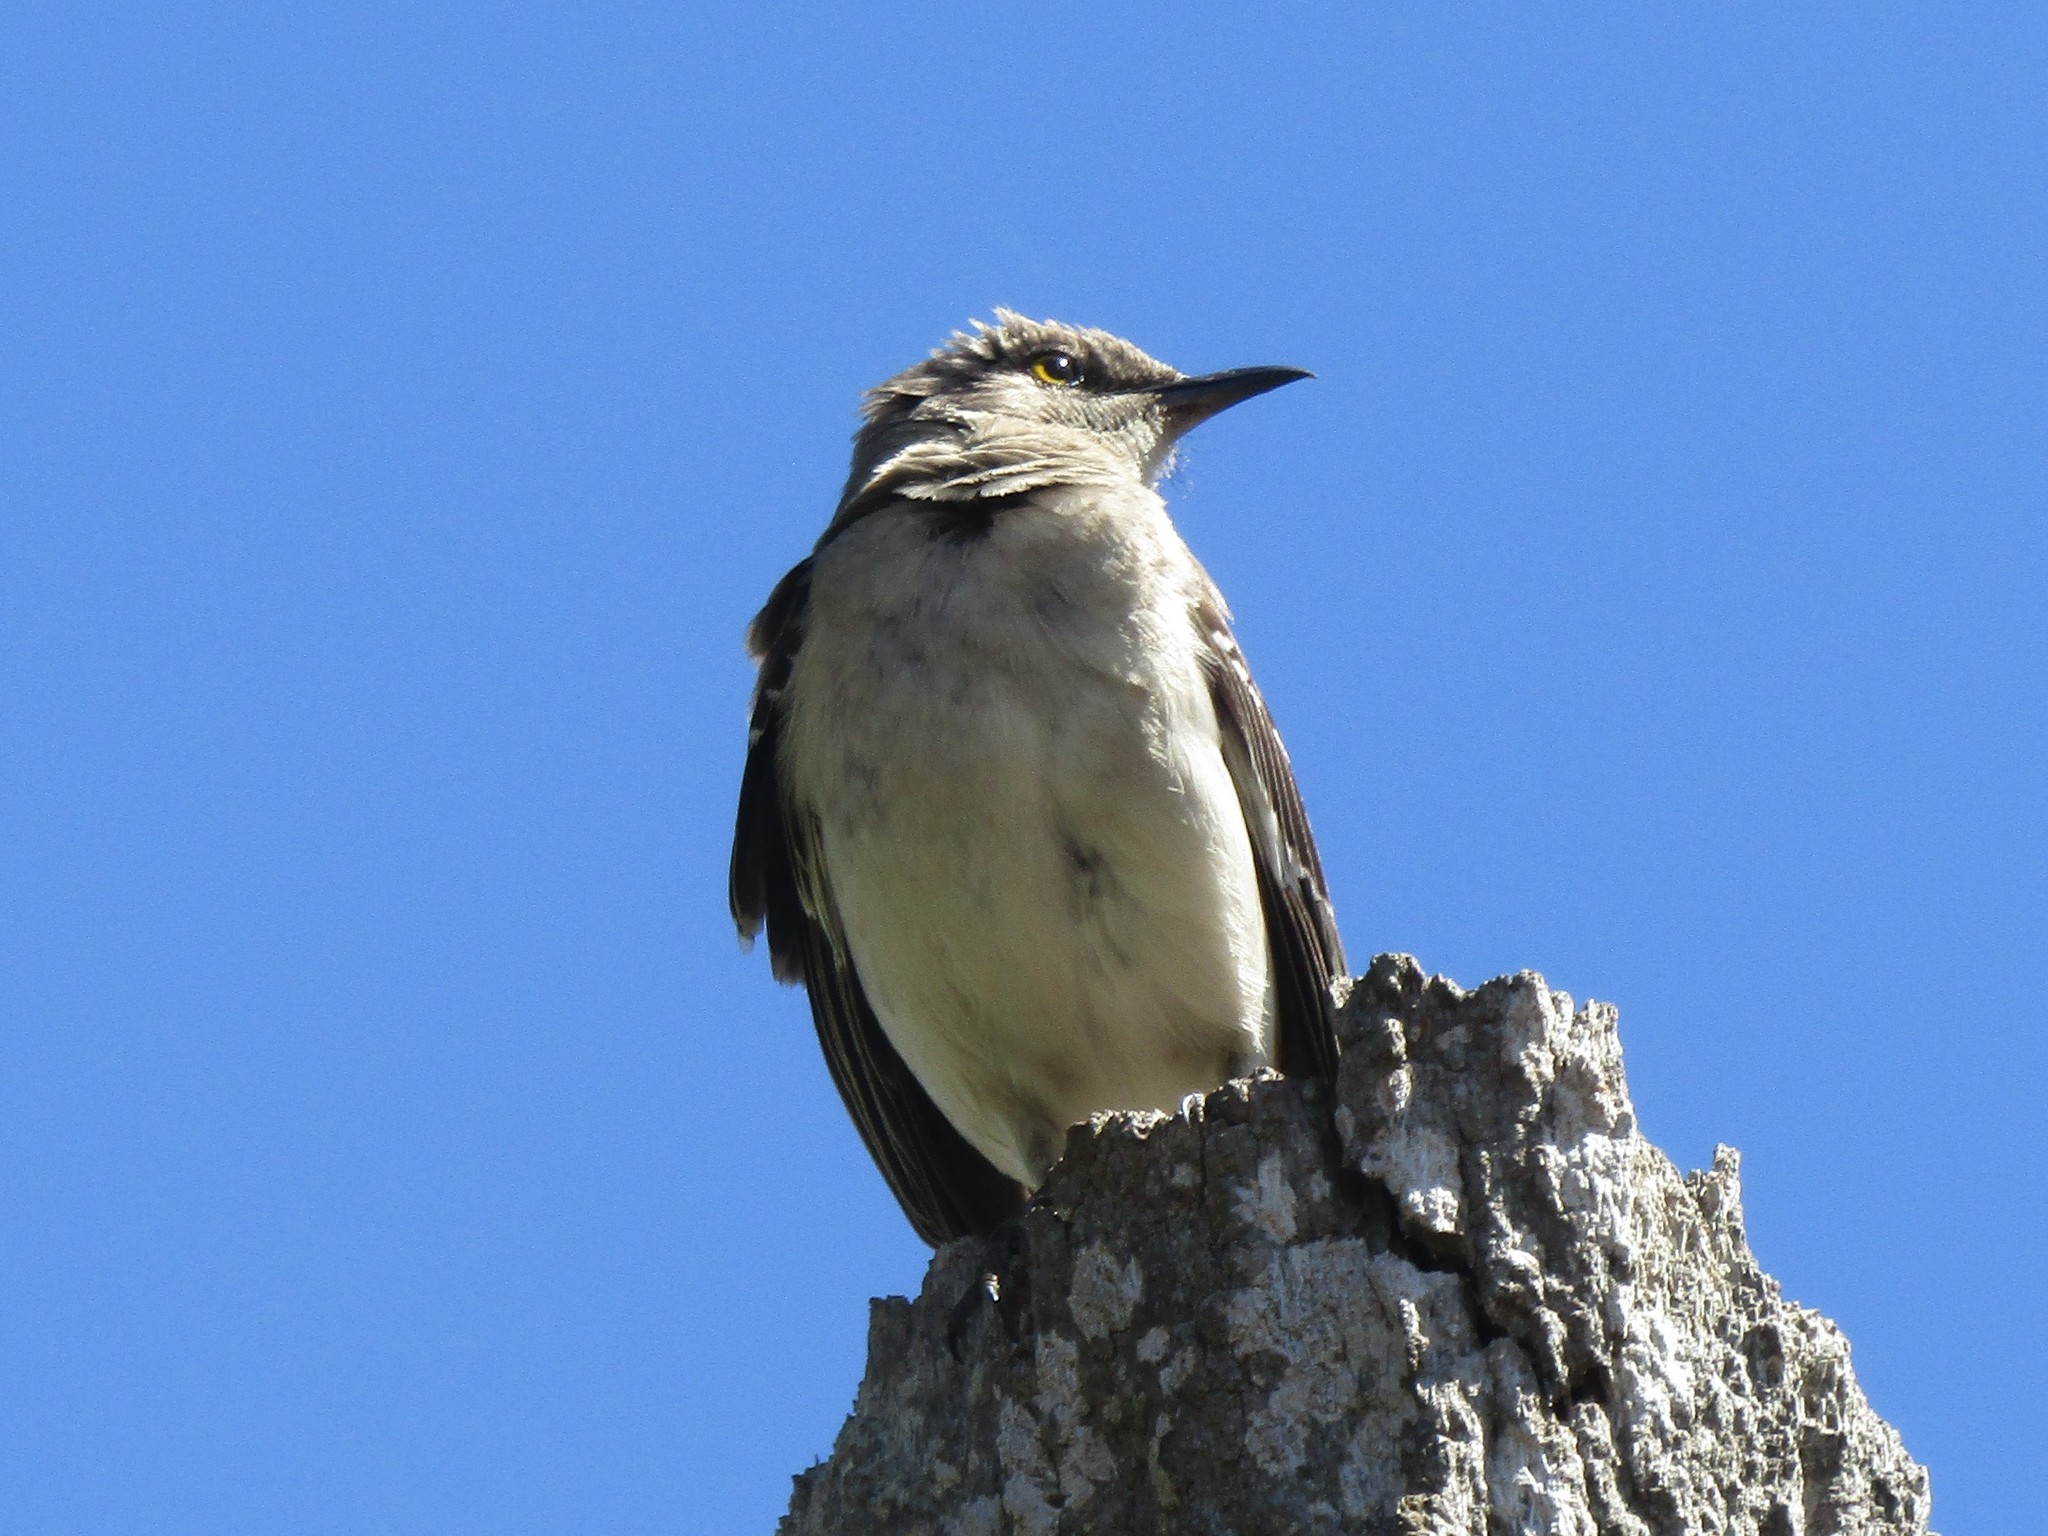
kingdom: Animalia
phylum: Chordata
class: Aves
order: Passeriformes
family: Mimidae
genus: Mimus
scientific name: Mimus polyglottos
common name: Northern mockingbird
